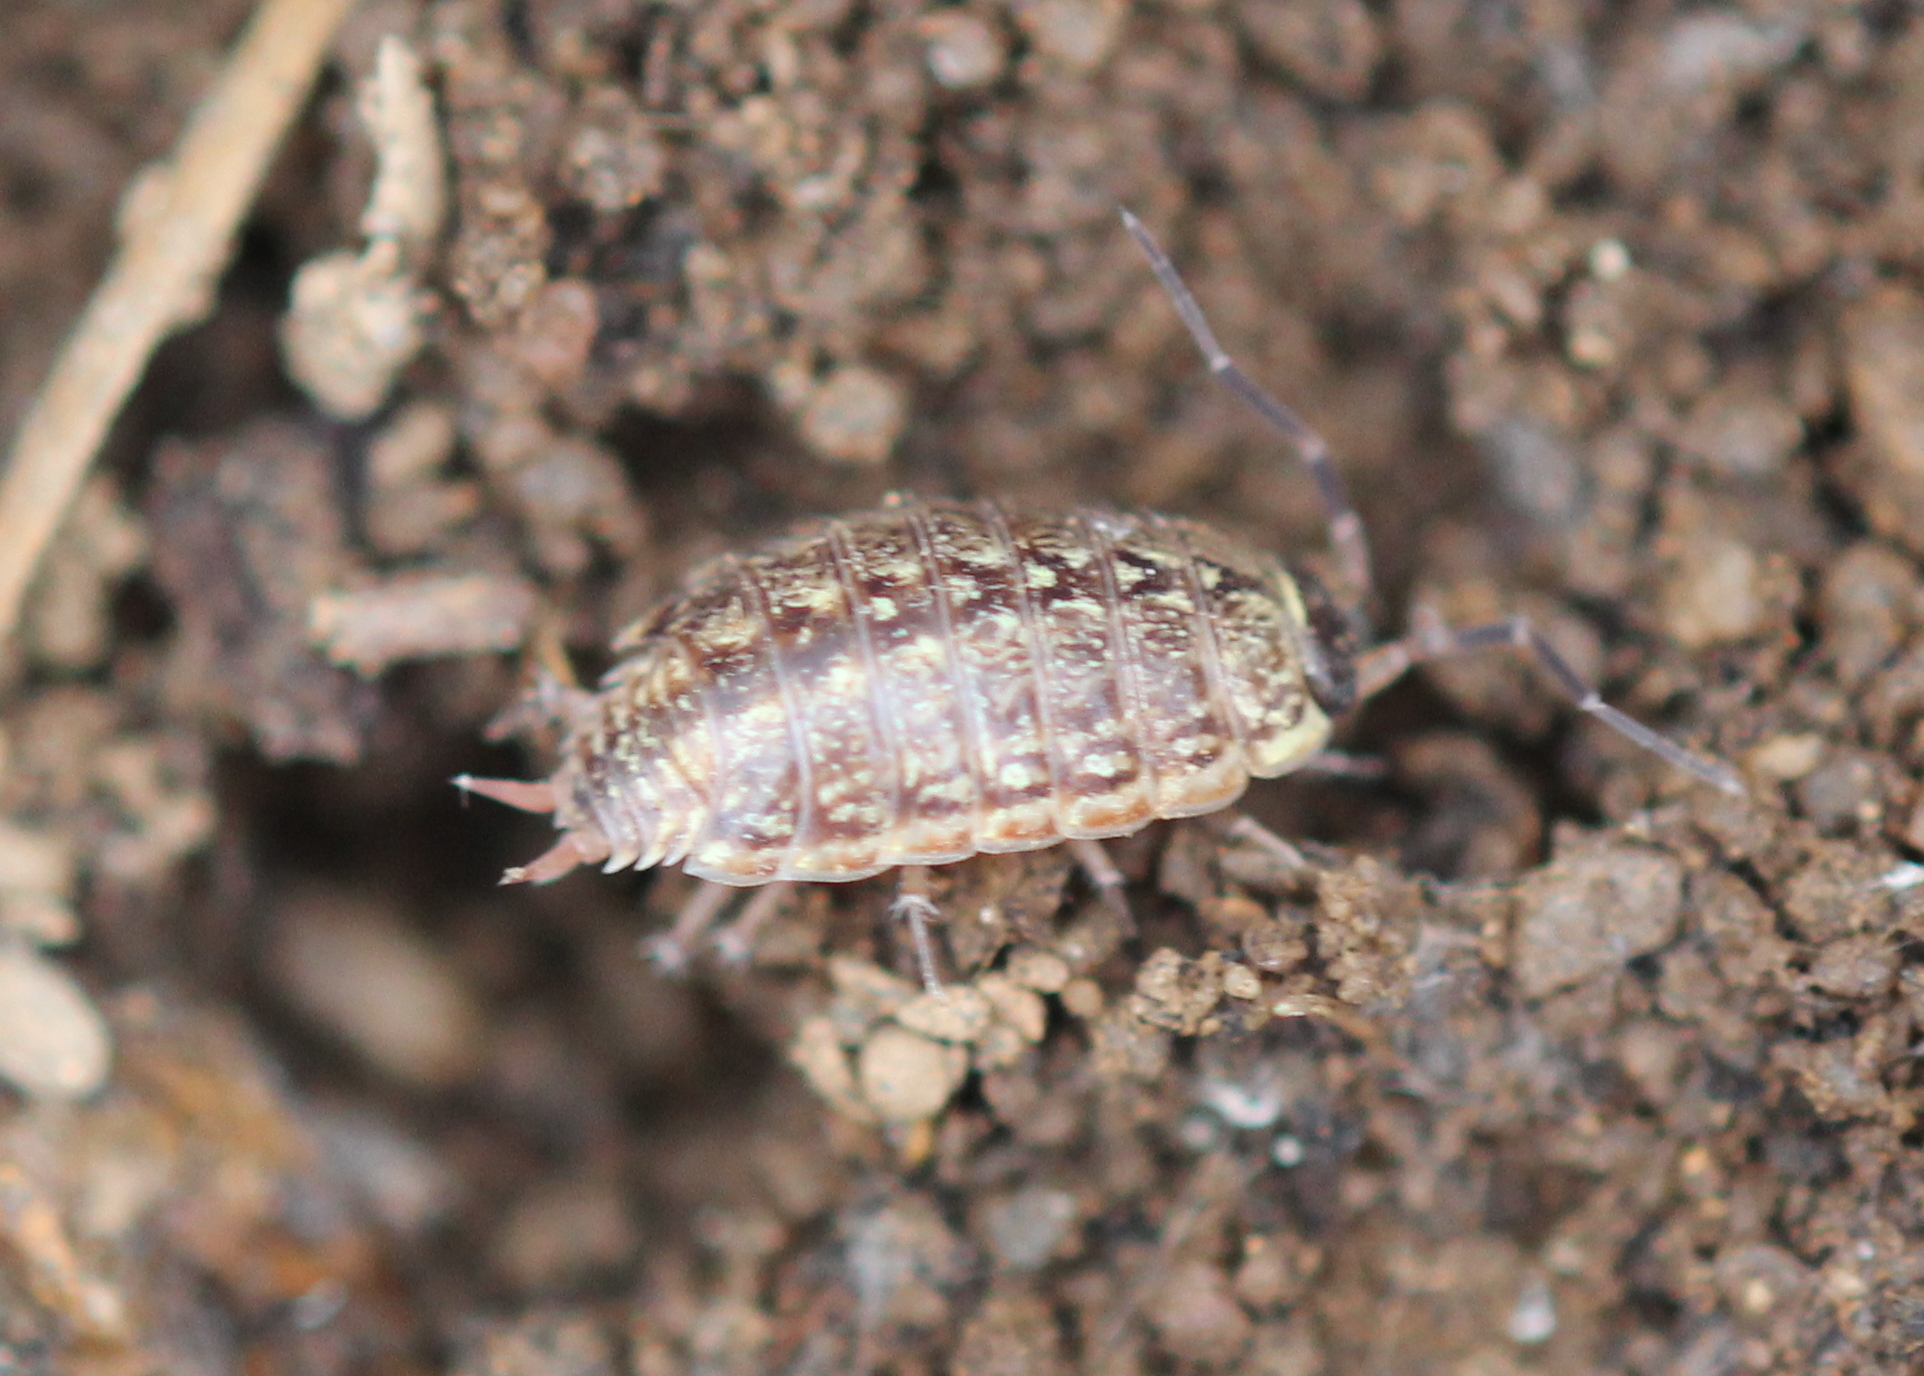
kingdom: Animalia
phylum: Arthropoda
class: Malacostraca
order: Isopoda
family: Philosciidae
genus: Philoscia
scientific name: Philoscia muscorum
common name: Common striped woodlouse
